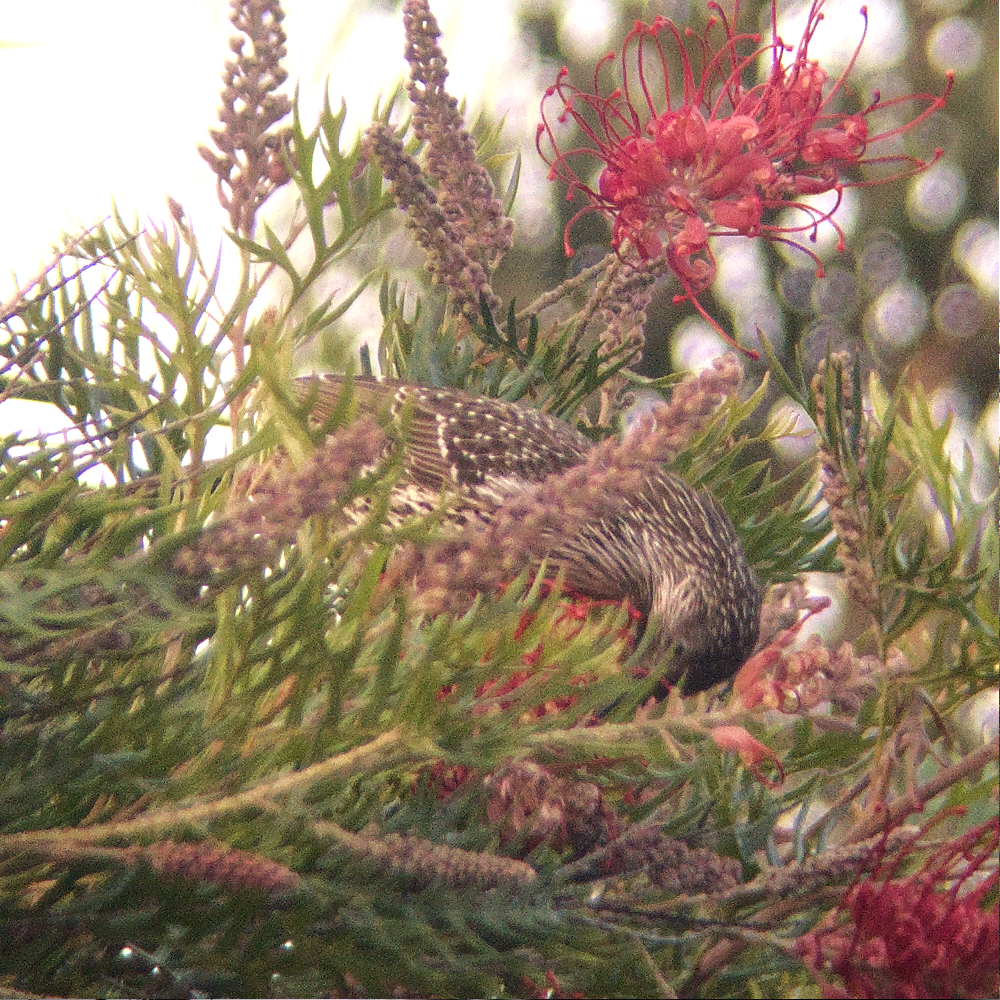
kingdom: Animalia
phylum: Chordata
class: Aves
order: Passeriformes
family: Meliphagidae
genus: Anthochaera
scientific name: Anthochaera chrysoptera
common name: Little wattlebird
